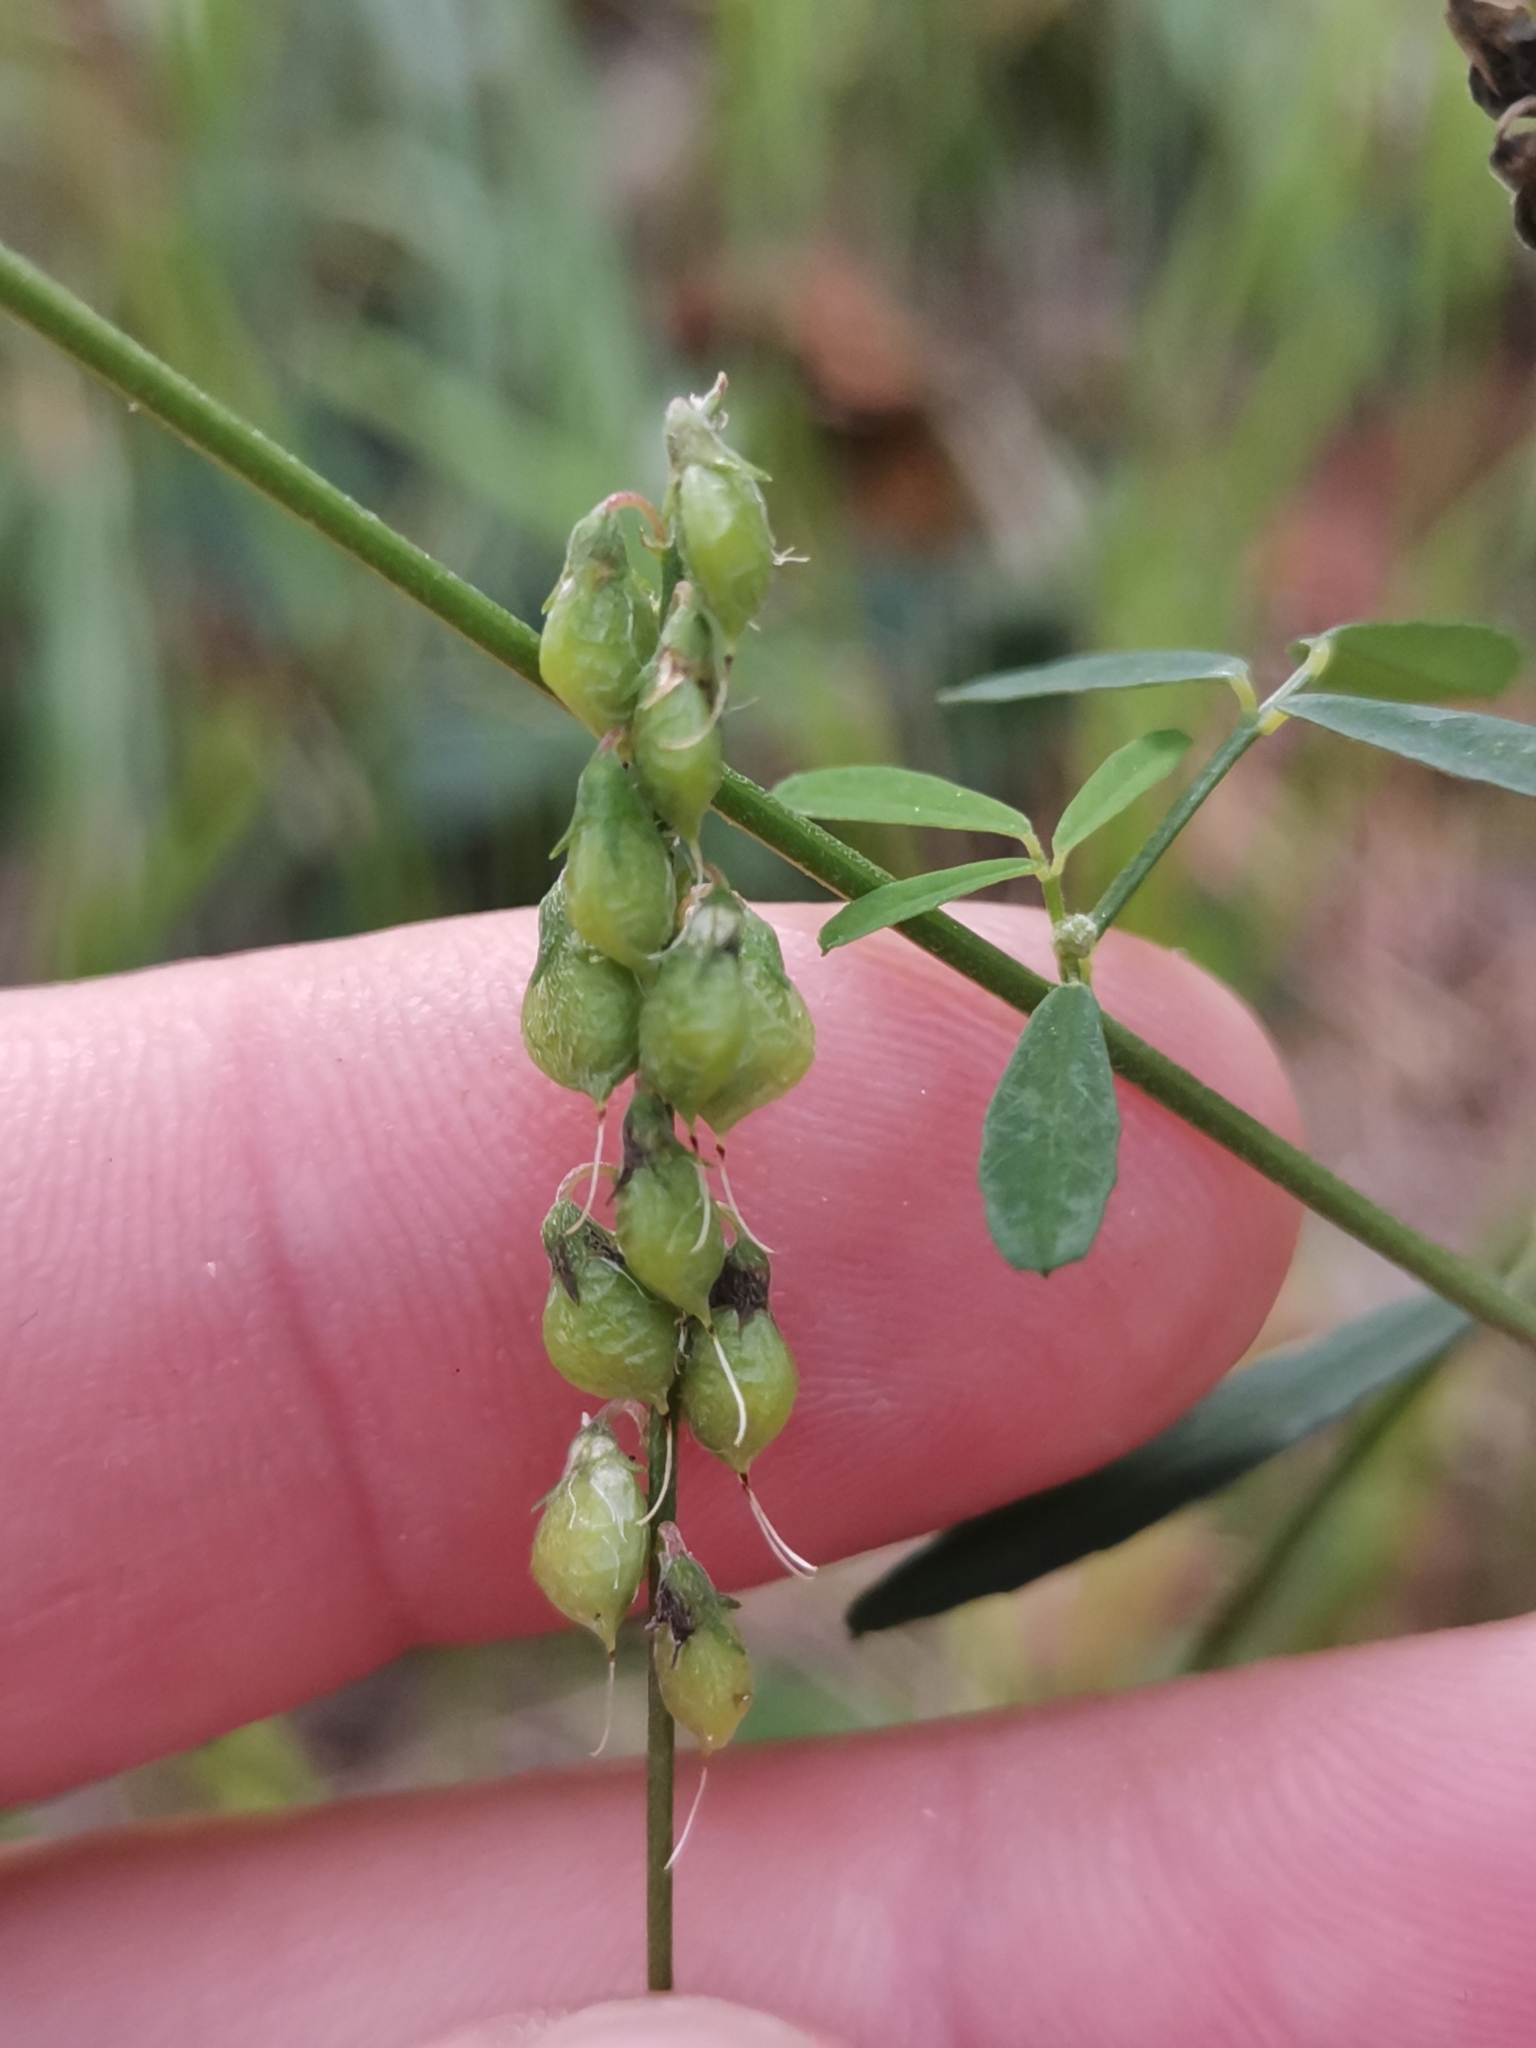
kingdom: Plantae
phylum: Tracheophyta
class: Magnoliopsida
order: Fabales
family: Fabaceae
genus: Melilotus
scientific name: Melilotus officinalis
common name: Sweetclover
